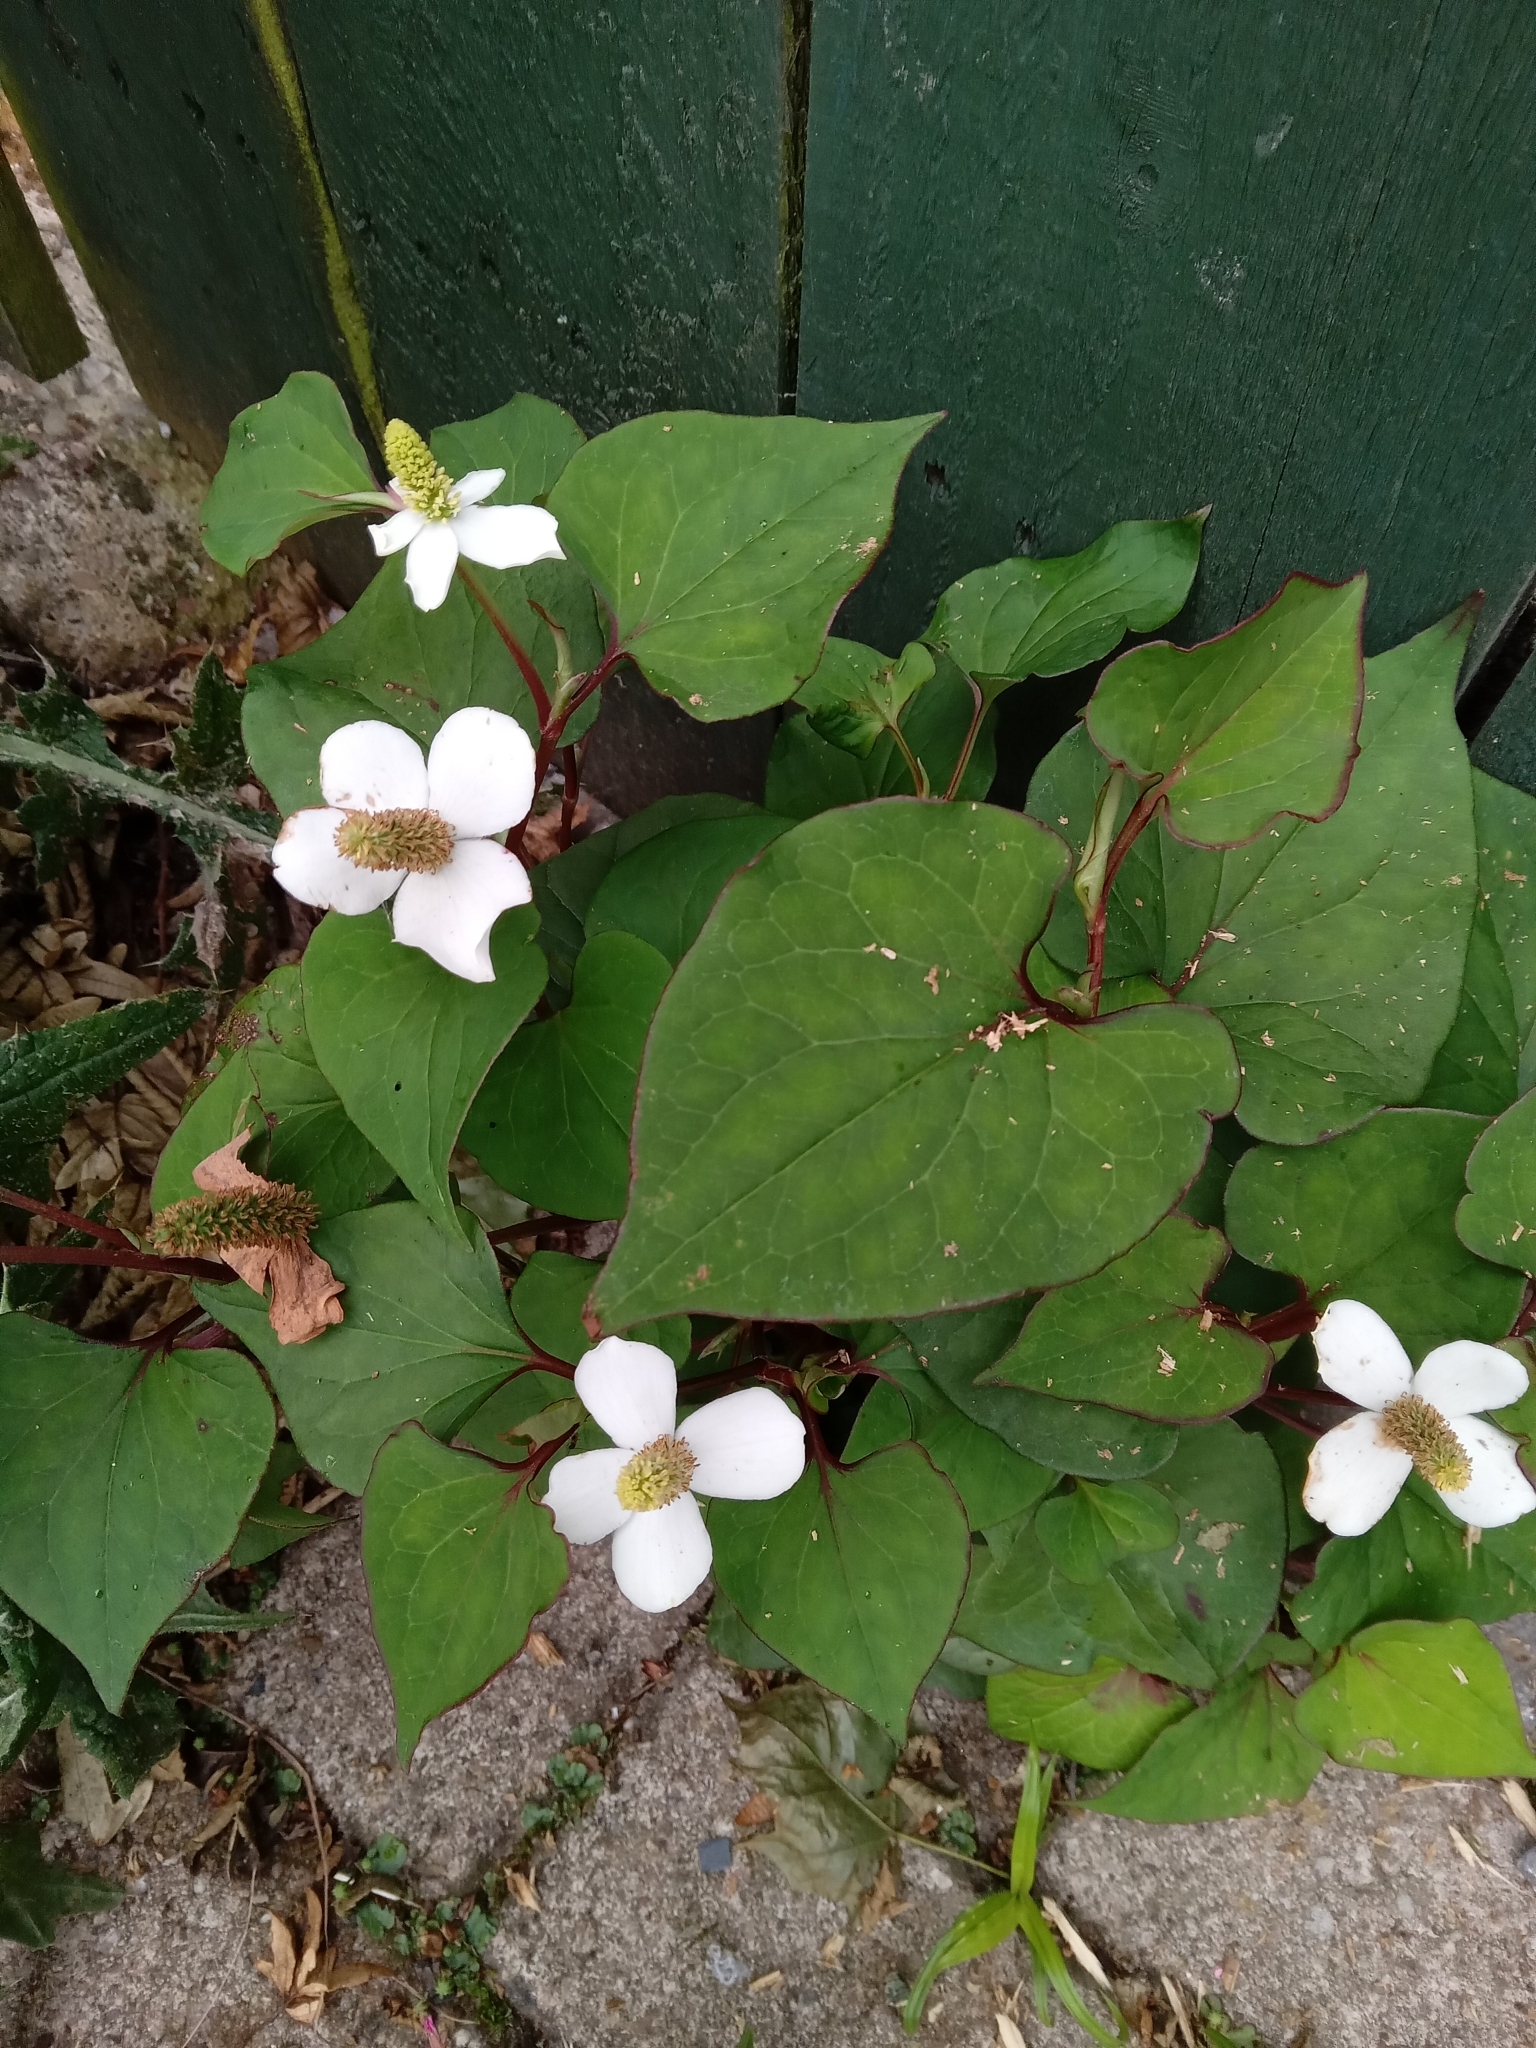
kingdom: Plantae
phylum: Tracheophyta
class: Magnoliopsida
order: Piperales
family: Saururaceae
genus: Houttuynia
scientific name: Houttuynia cordata
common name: Chameleon
